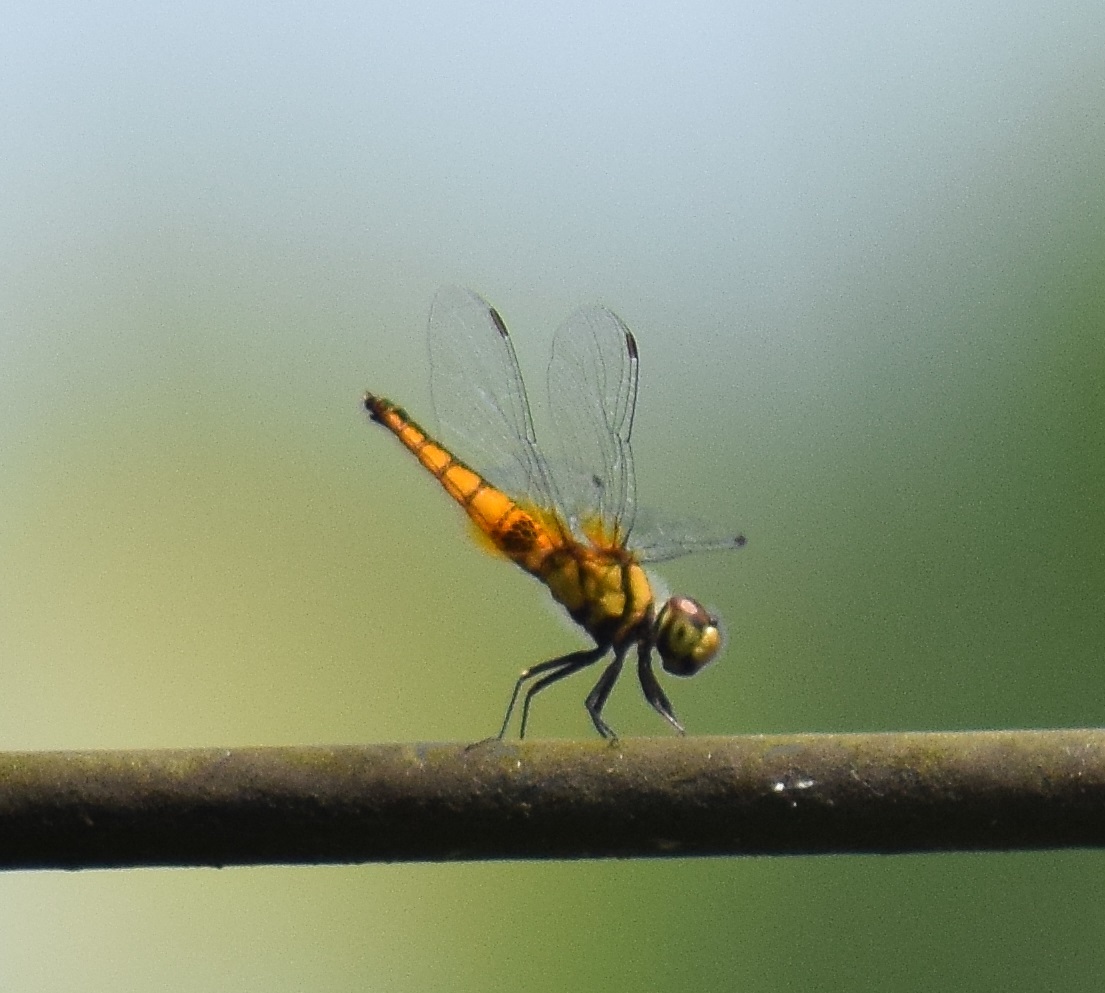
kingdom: Animalia
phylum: Arthropoda
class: Insecta
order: Odonata
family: Libellulidae
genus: Aethriamanta
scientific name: Aethriamanta brevipennis
